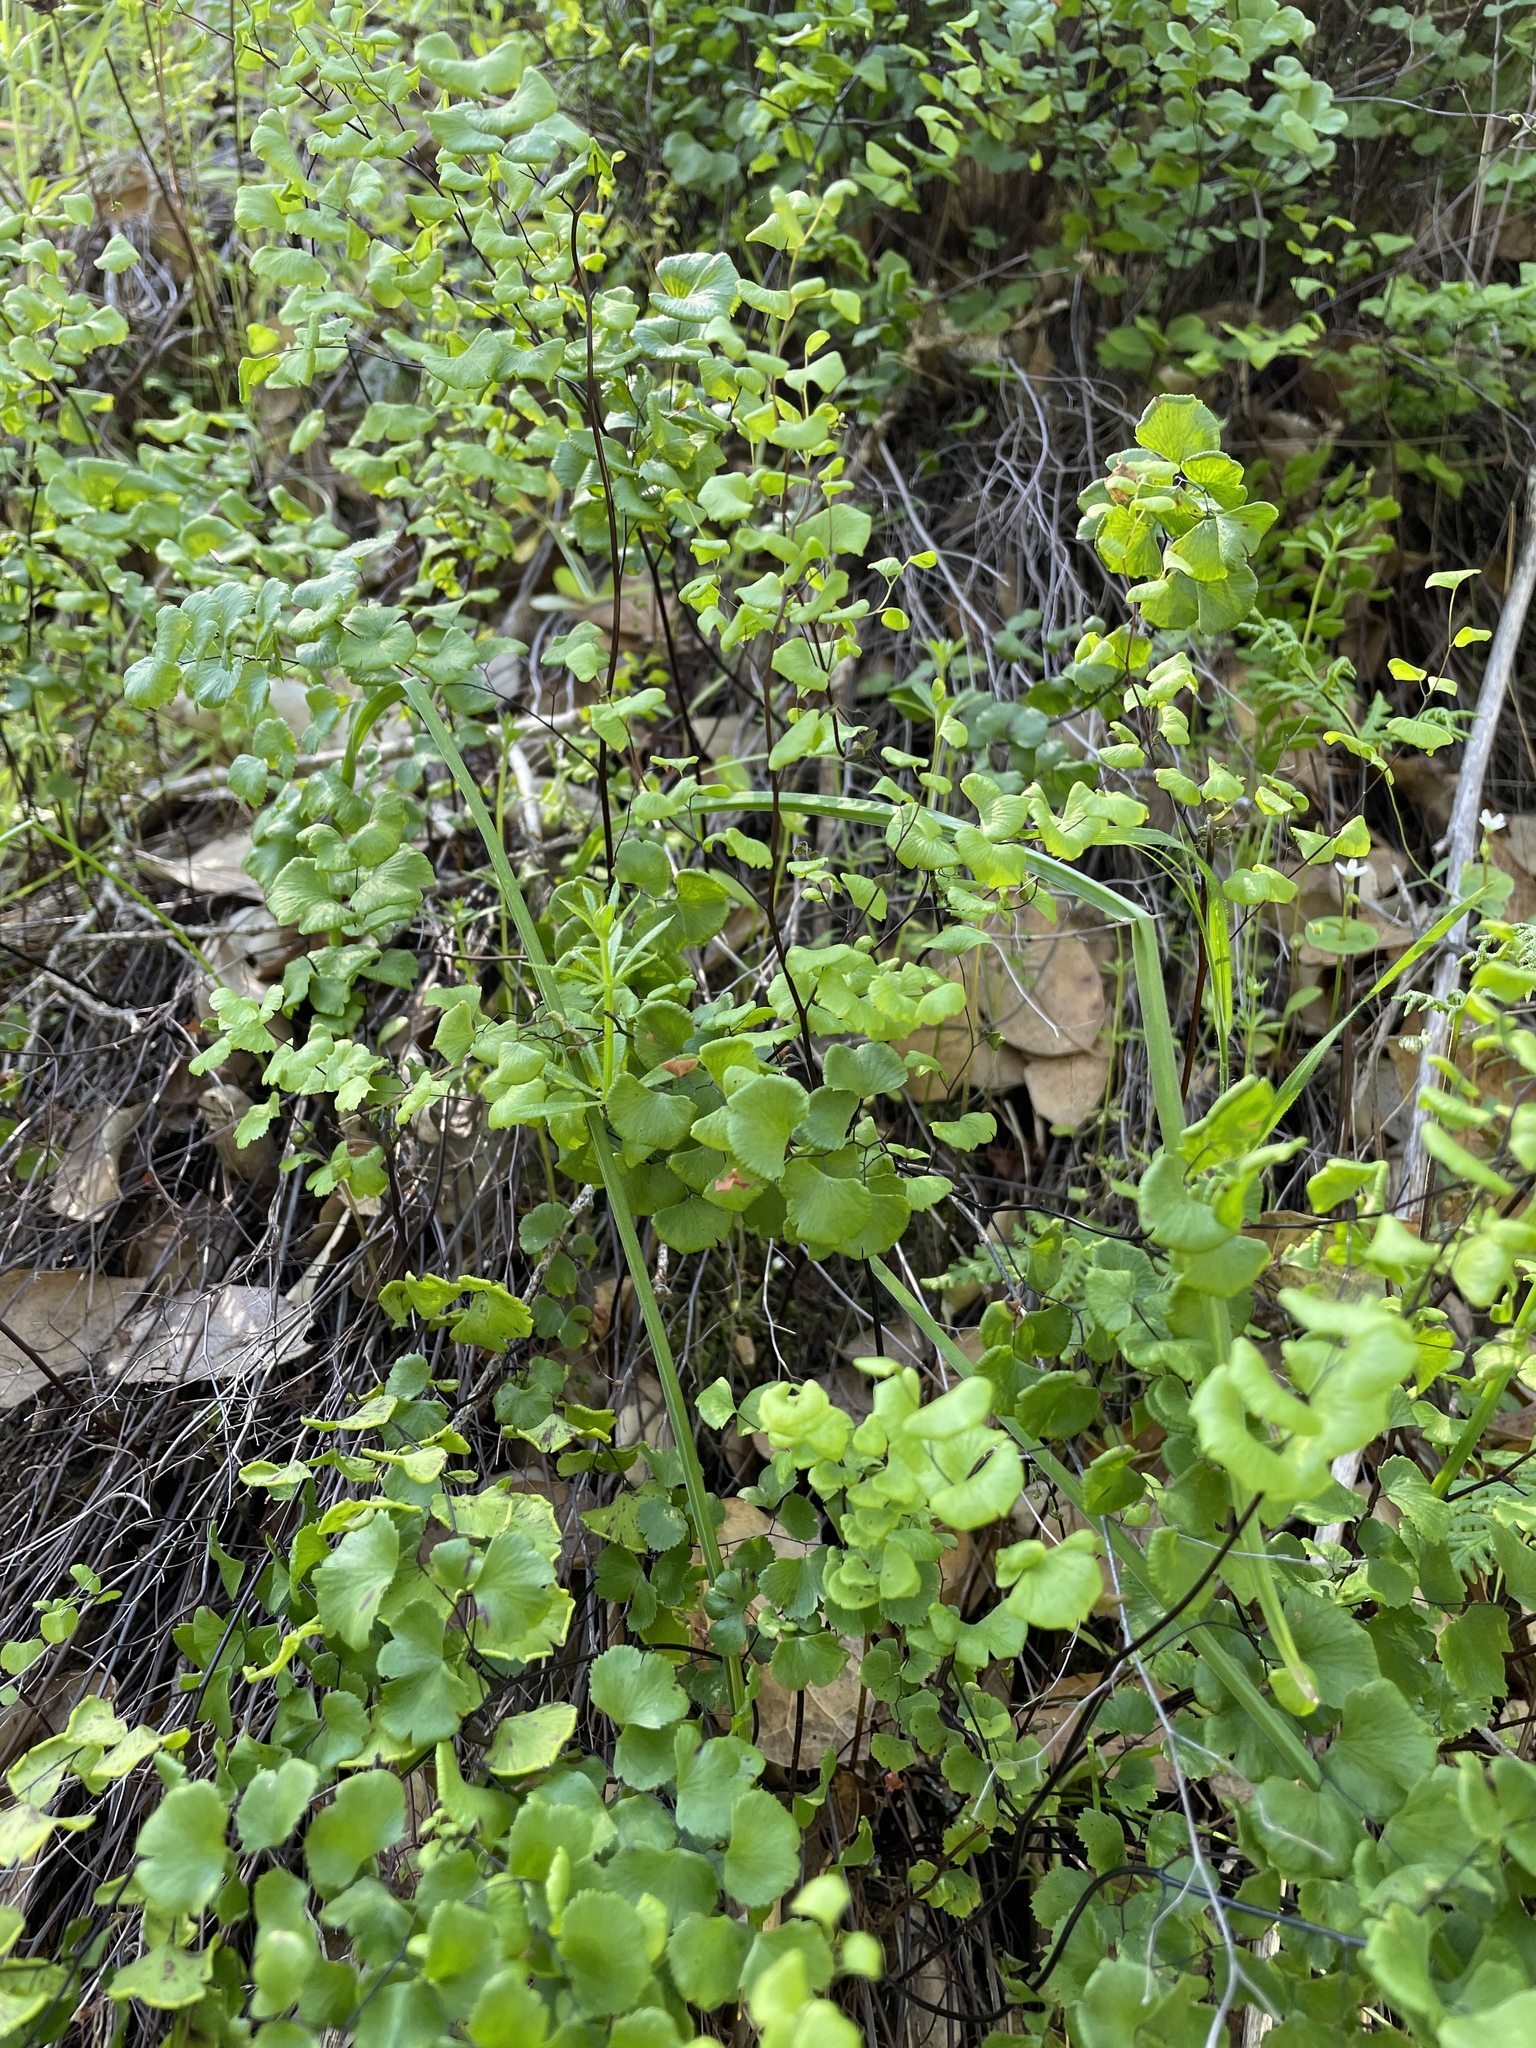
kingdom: Plantae
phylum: Tracheophyta
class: Polypodiopsida
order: Polypodiales
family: Pteridaceae
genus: Adiantum
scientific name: Adiantum jordanii
